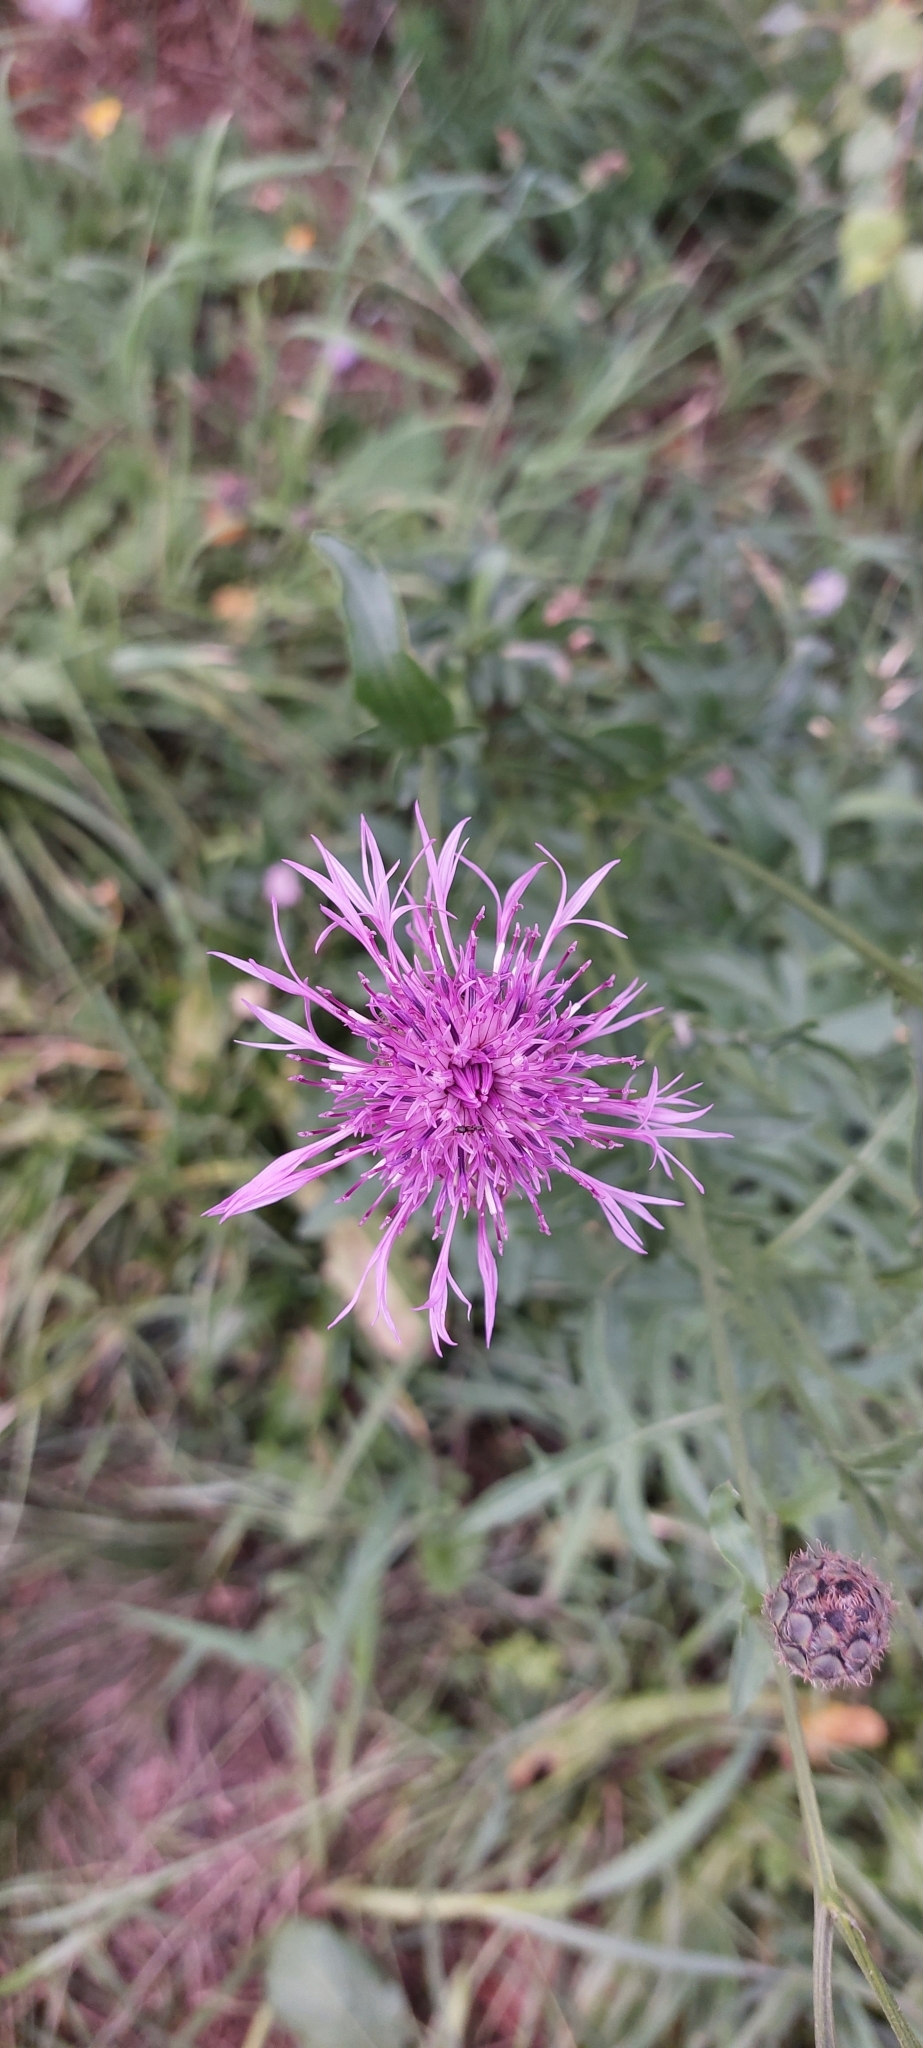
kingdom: Plantae
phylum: Tracheophyta
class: Magnoliopsida
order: Asterales
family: Asteraceae
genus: Centaurea
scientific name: Centaurea scabiosa
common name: Greater knapweed
